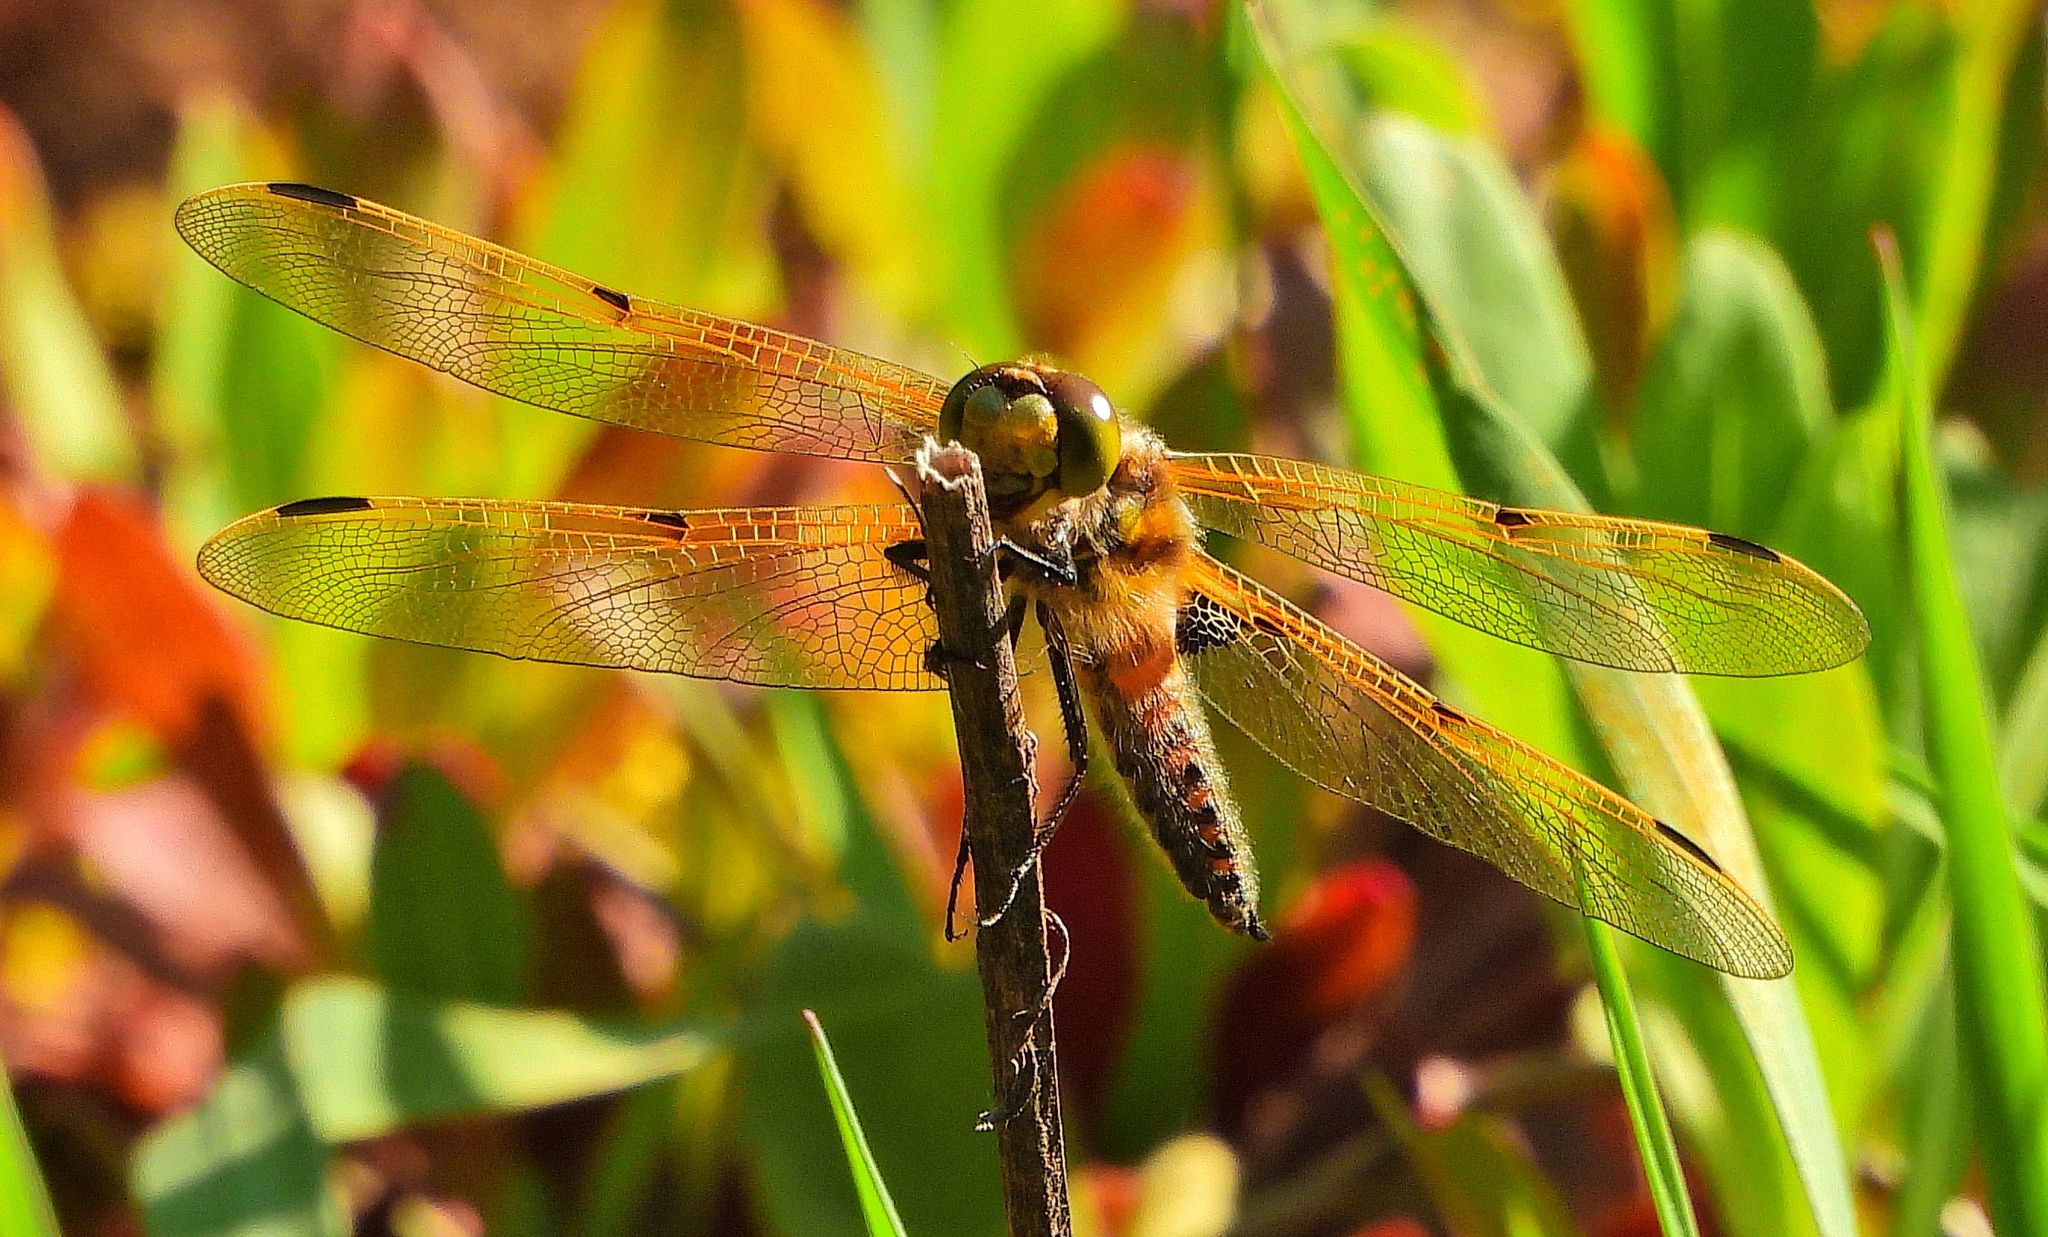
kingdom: Animalia
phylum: Arthropoda
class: Insecta
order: Odonata
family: Libellulidae
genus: Libellula
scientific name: Libellula quadrimaculata
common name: Four-spotted chaser
